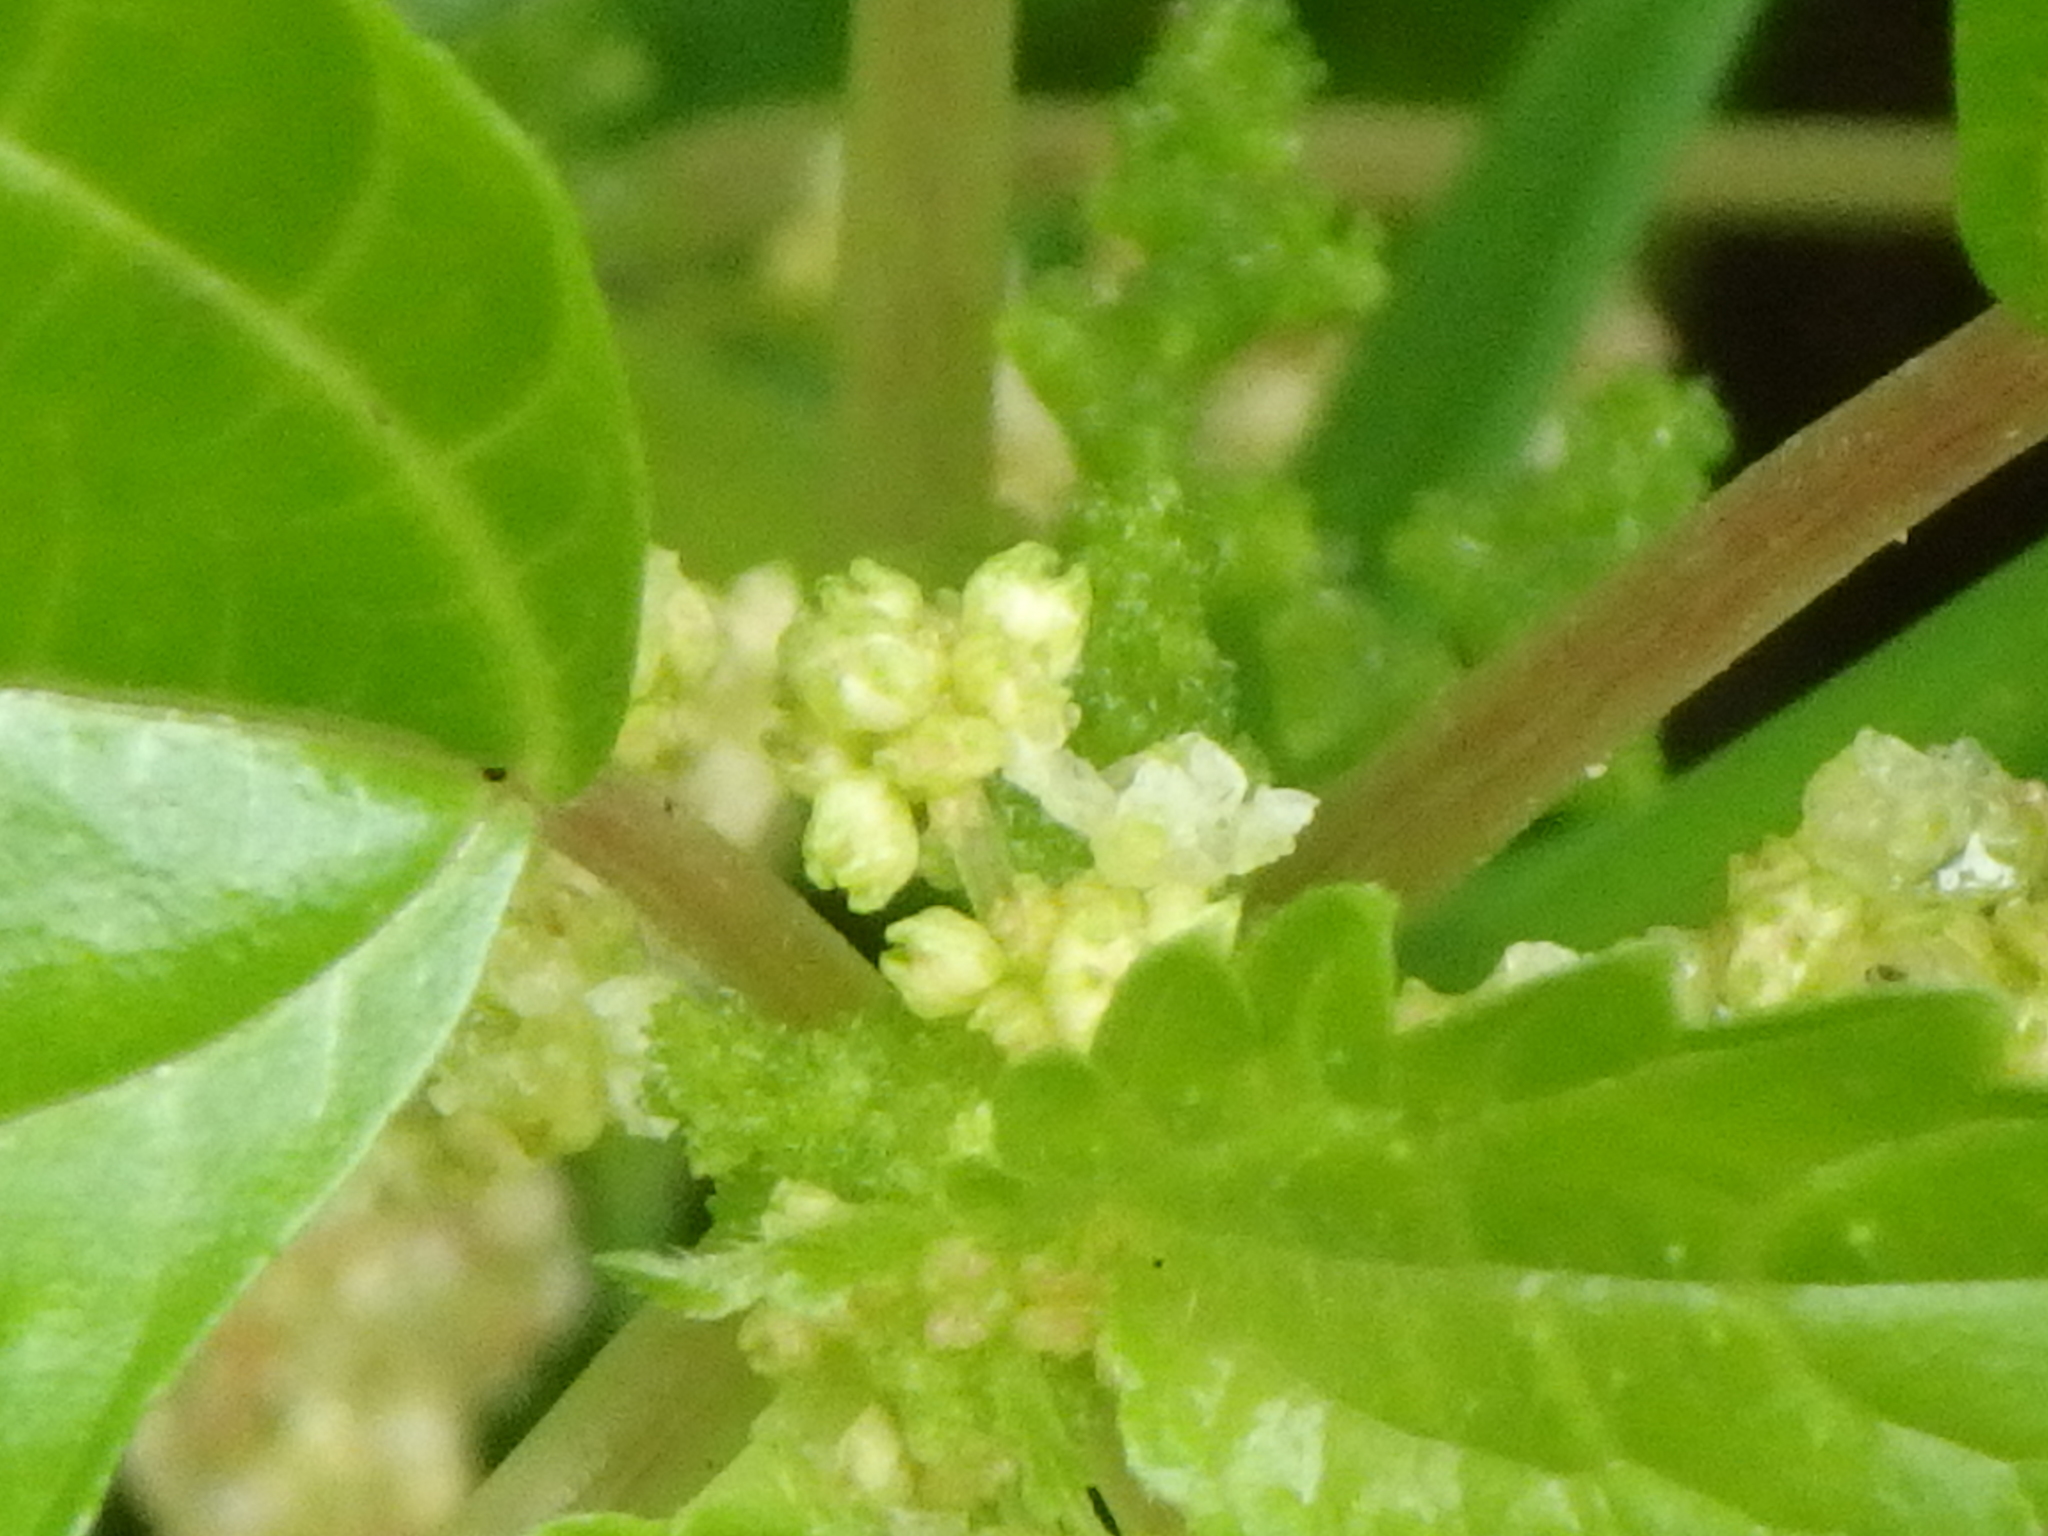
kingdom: Plantae
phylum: Tracheophyta
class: Magnoliopsida
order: Rosales
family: Urticaceae
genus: Pilea
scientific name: Pilea pumila
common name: Clearweed
